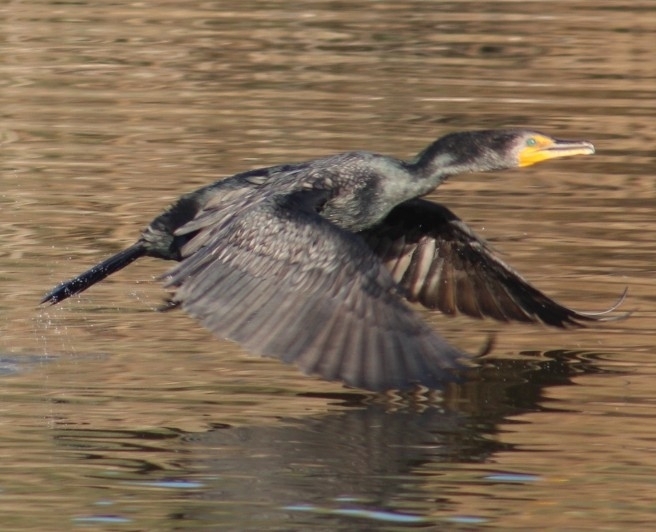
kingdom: Animalia
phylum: Chordata
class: Aves
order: Suliformes
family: Phalacrocoracidae
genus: Phalacrocorax
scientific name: Phalacrocorax auritus
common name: Double-crested cormorant
